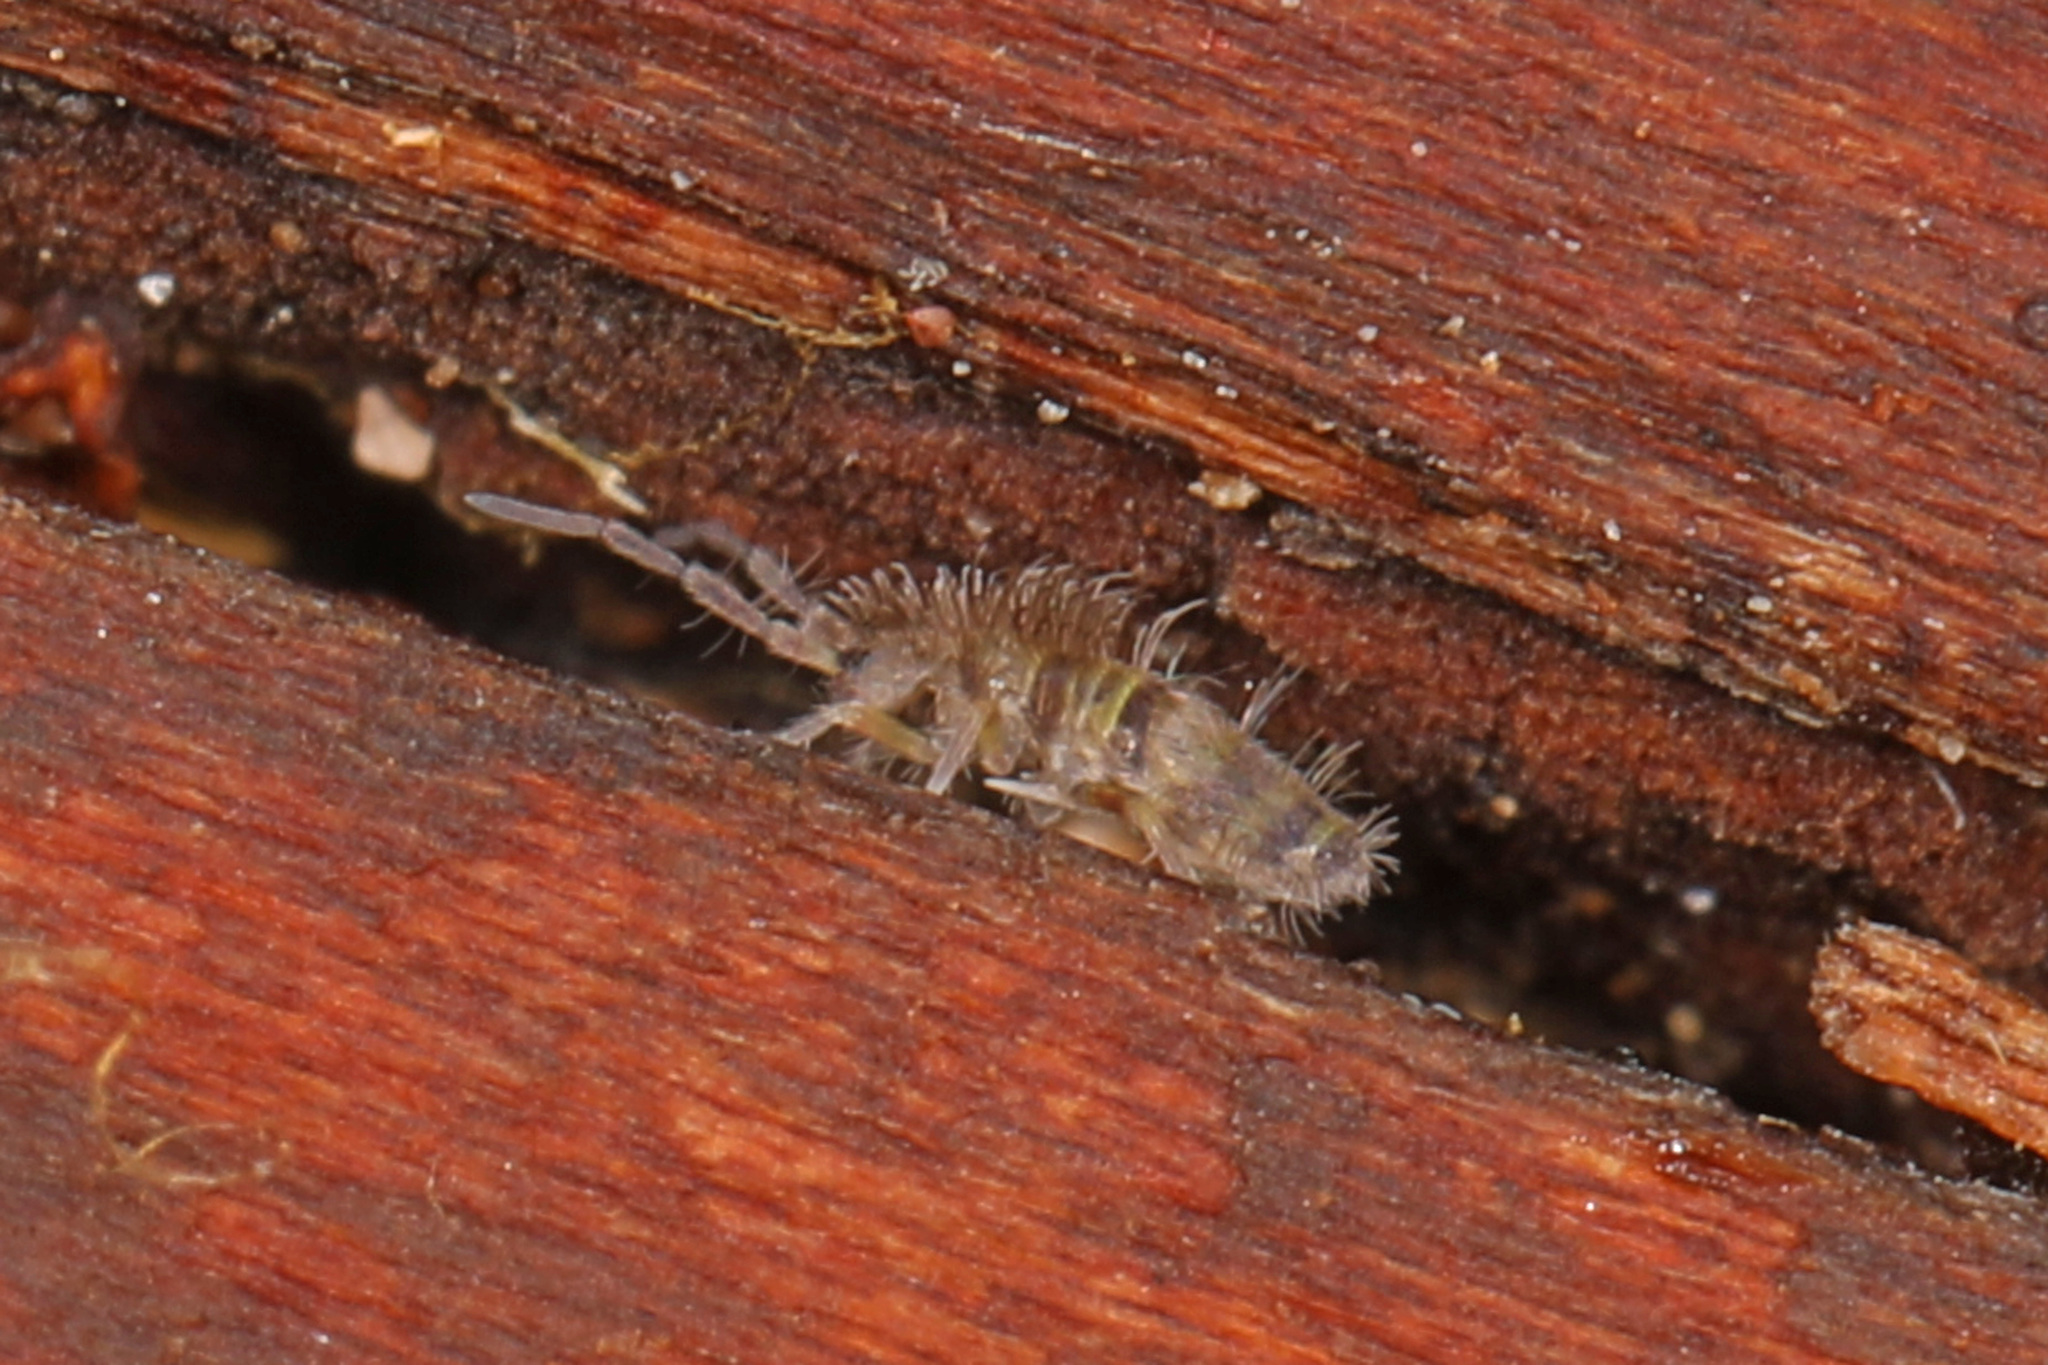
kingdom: Animalia
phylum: Arthropoda
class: Collembola
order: Entomobryomorpha
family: Entomobryidae
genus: Homidia
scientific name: Homidia sauteri
